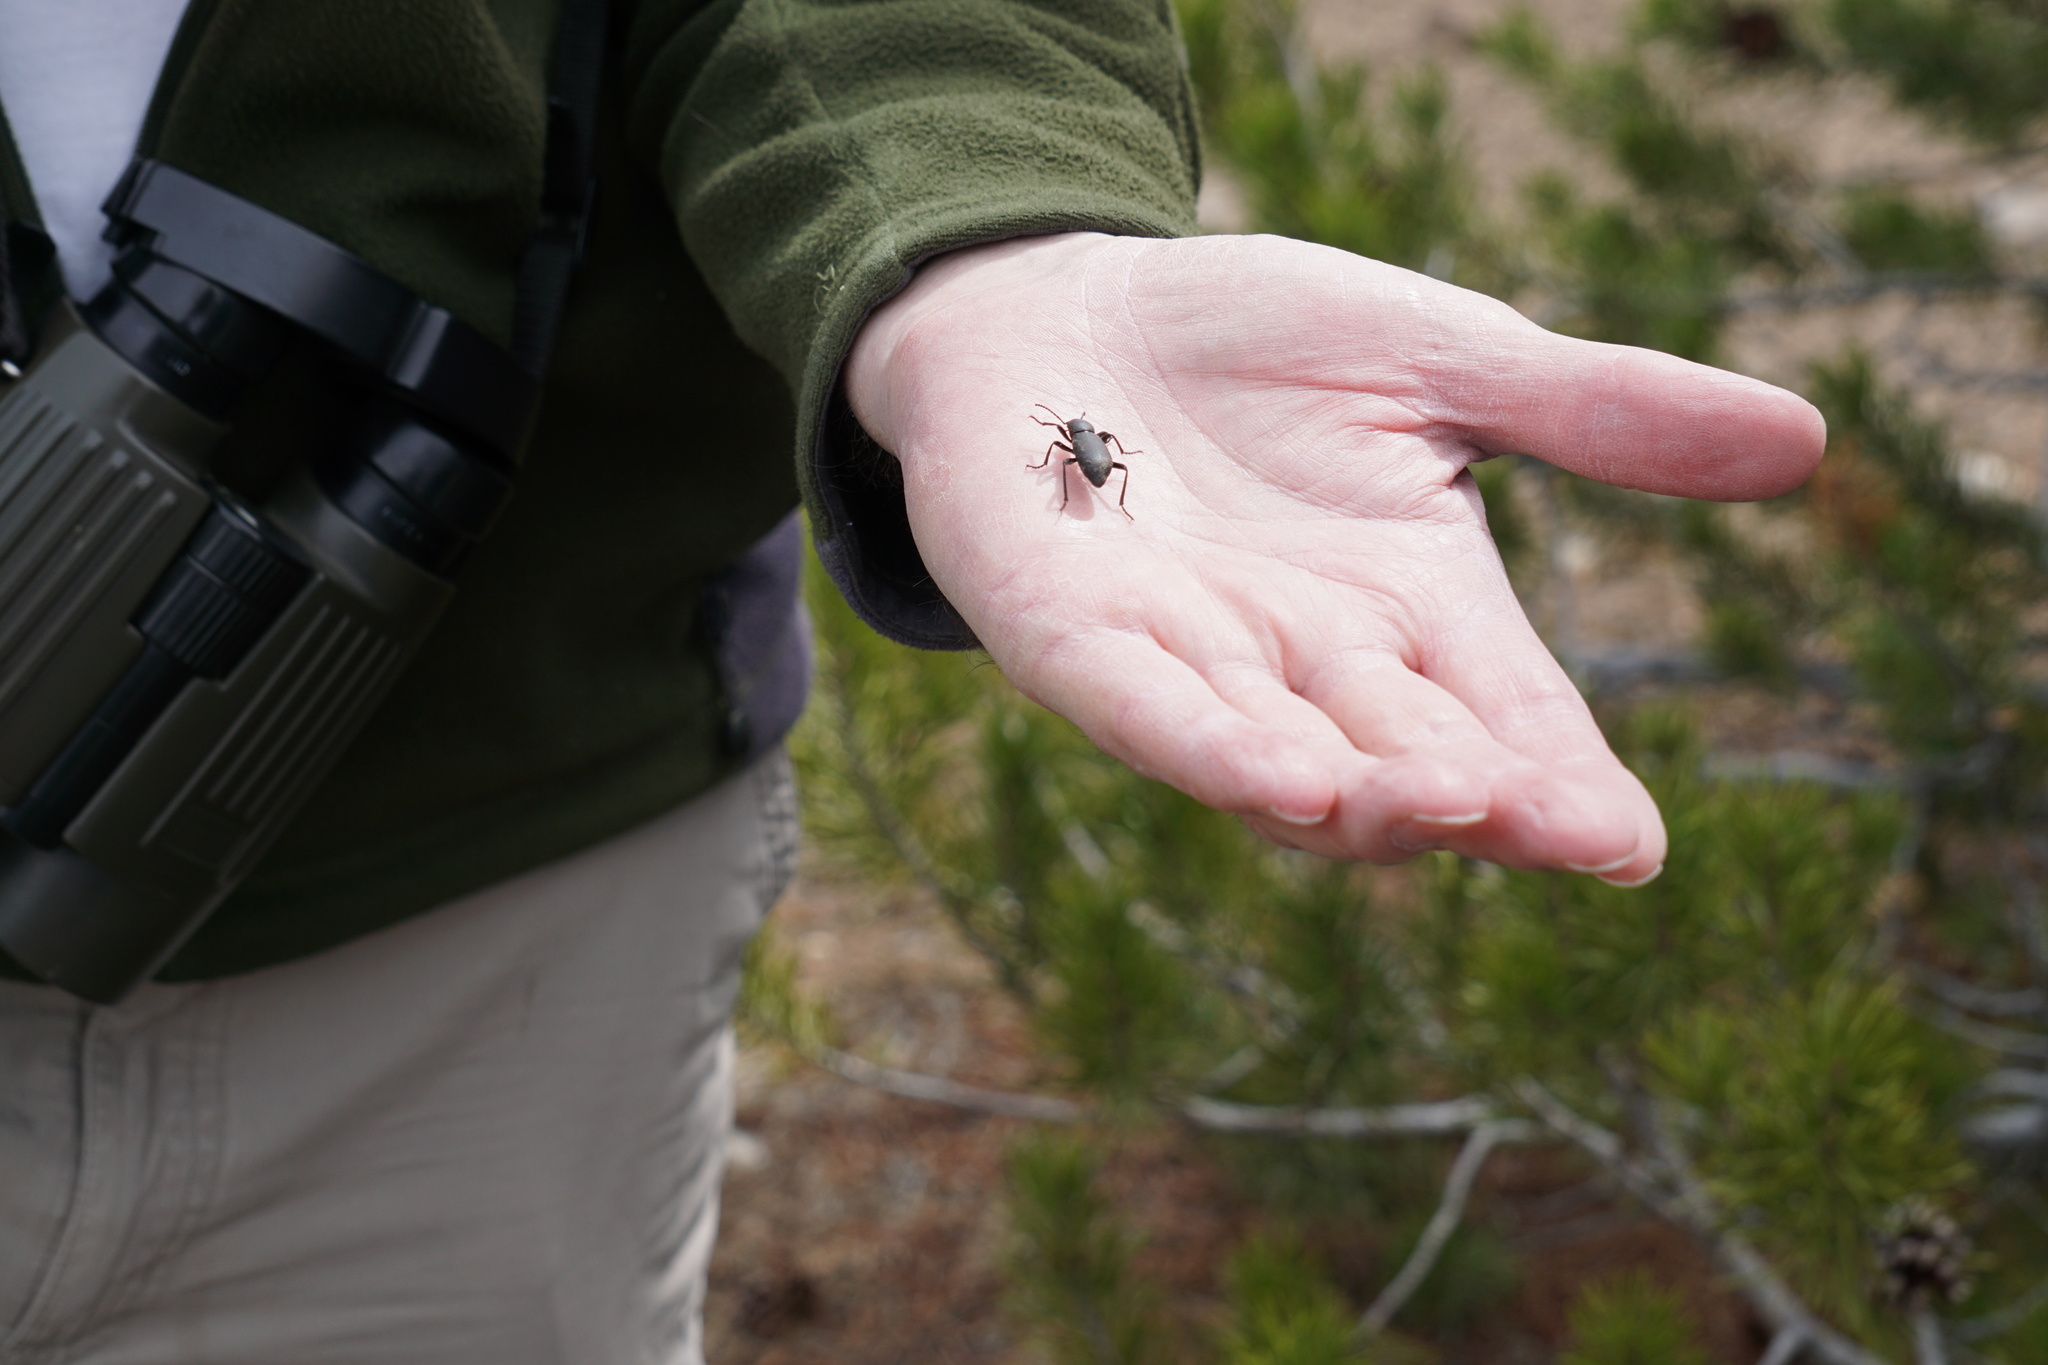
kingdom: Animalia
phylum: Arthropoda
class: Insecta
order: Coleoptera
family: Tenebrionidae
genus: Eleodes
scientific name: Eleodes nigrina
